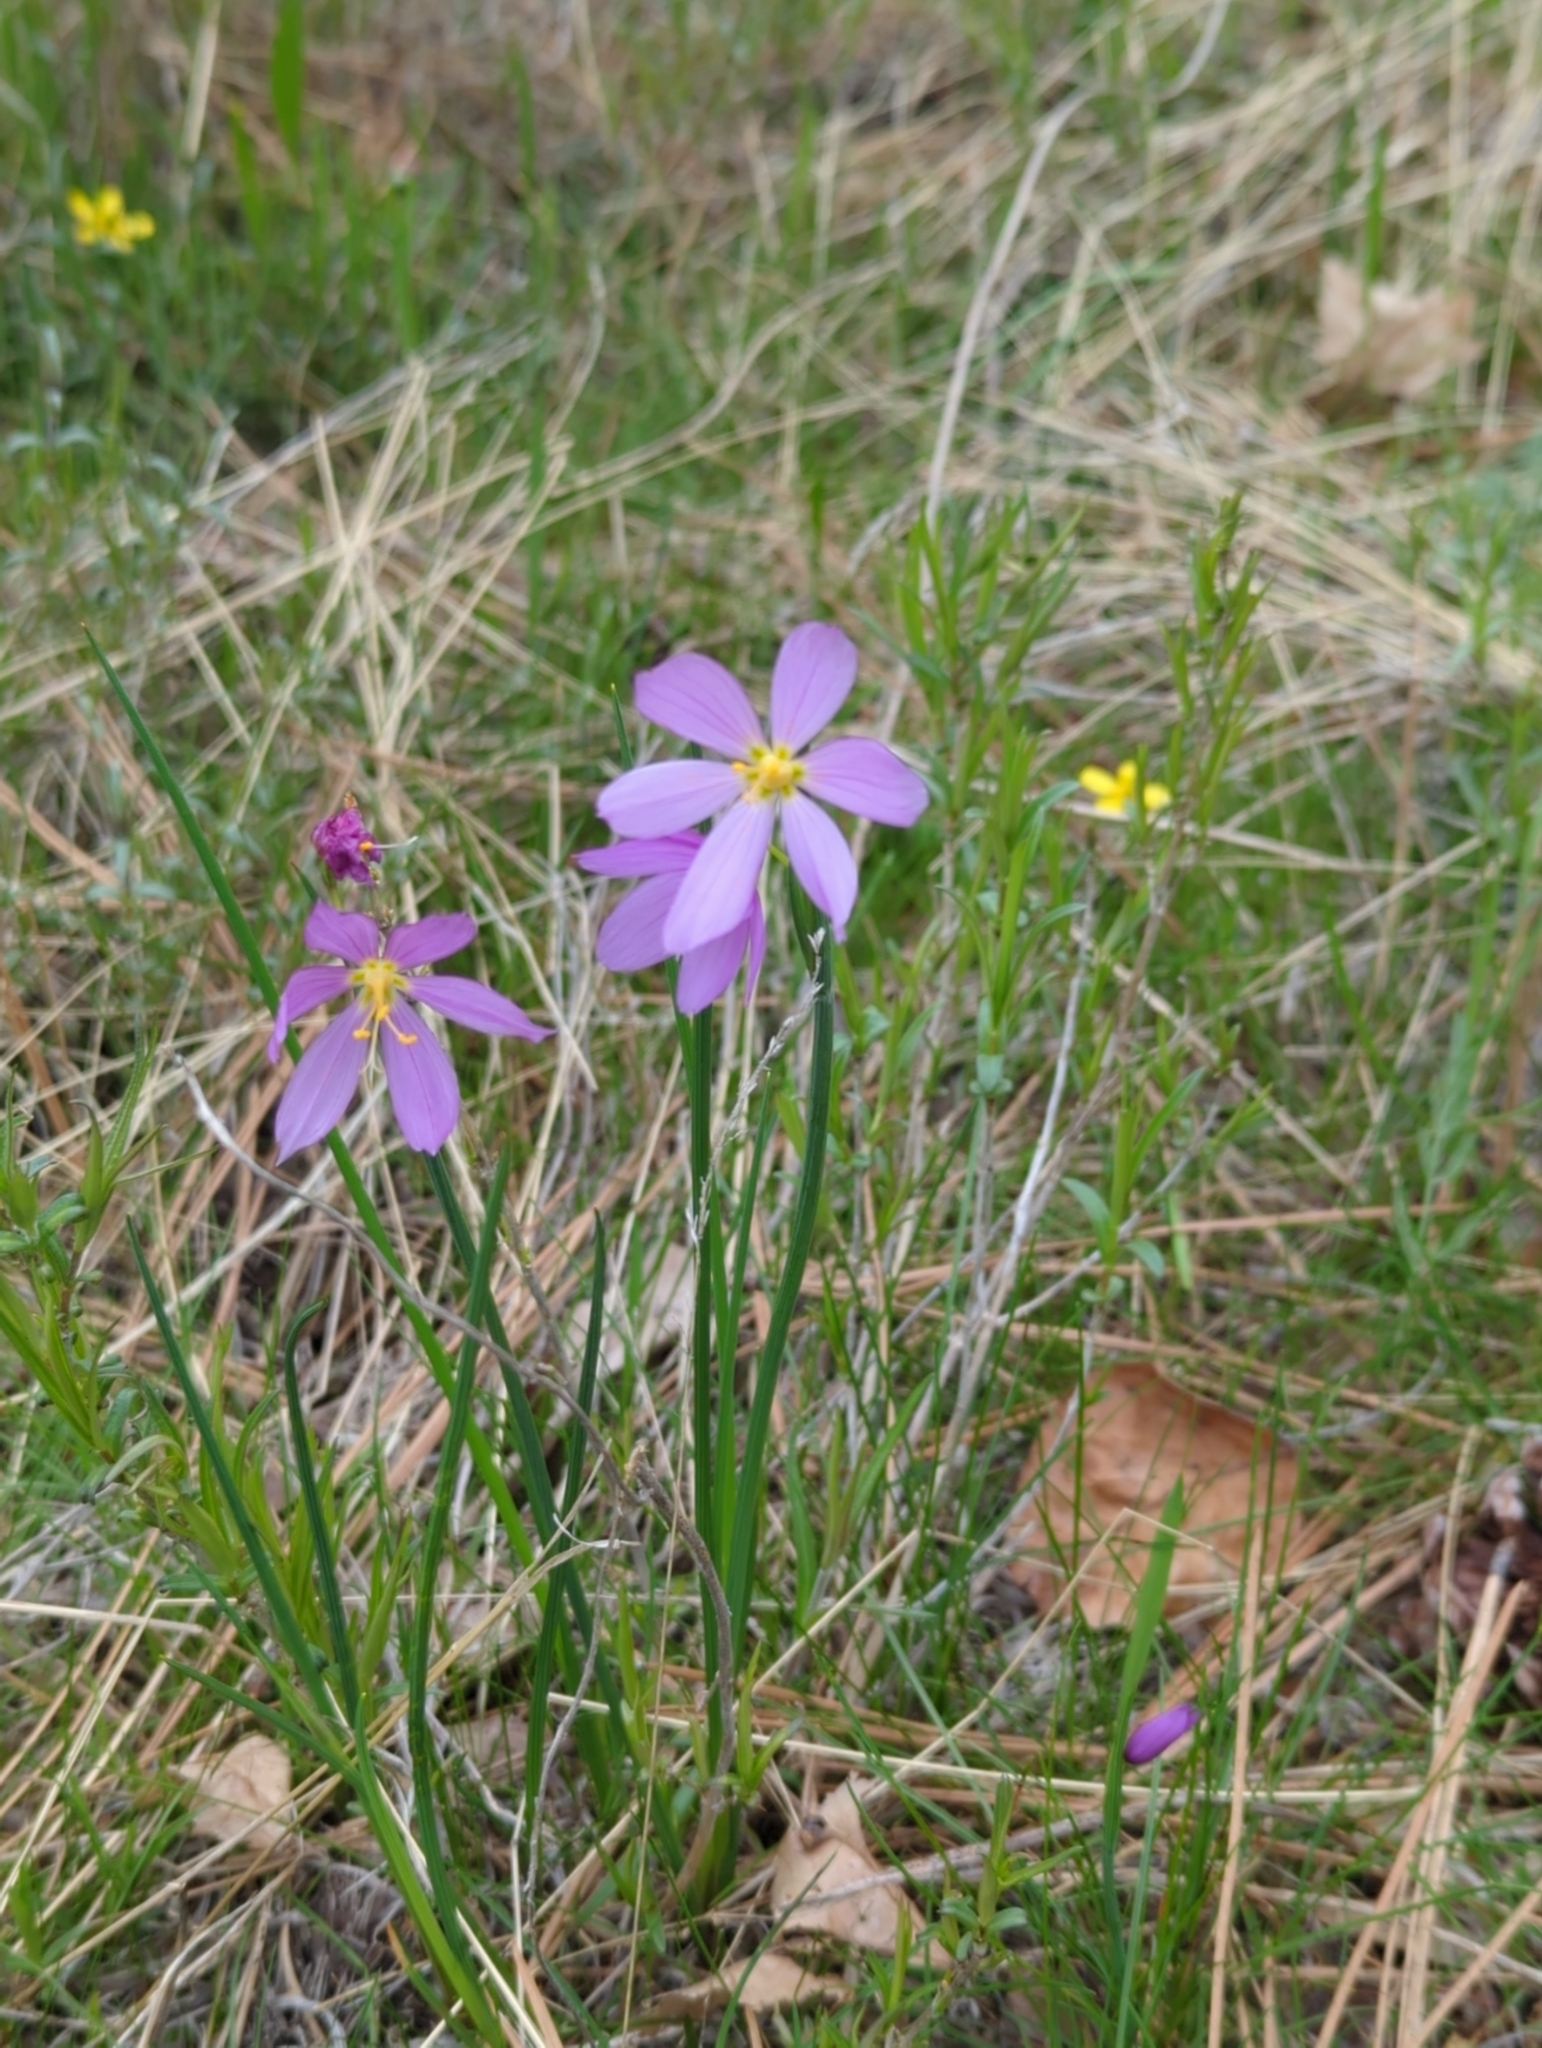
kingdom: Plantae
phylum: Tracheophyta
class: Liliopsida
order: Asparagales
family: Iridaceae
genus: Olsynium
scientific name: Olsynium douglasii
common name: Douglas' grasswidow
